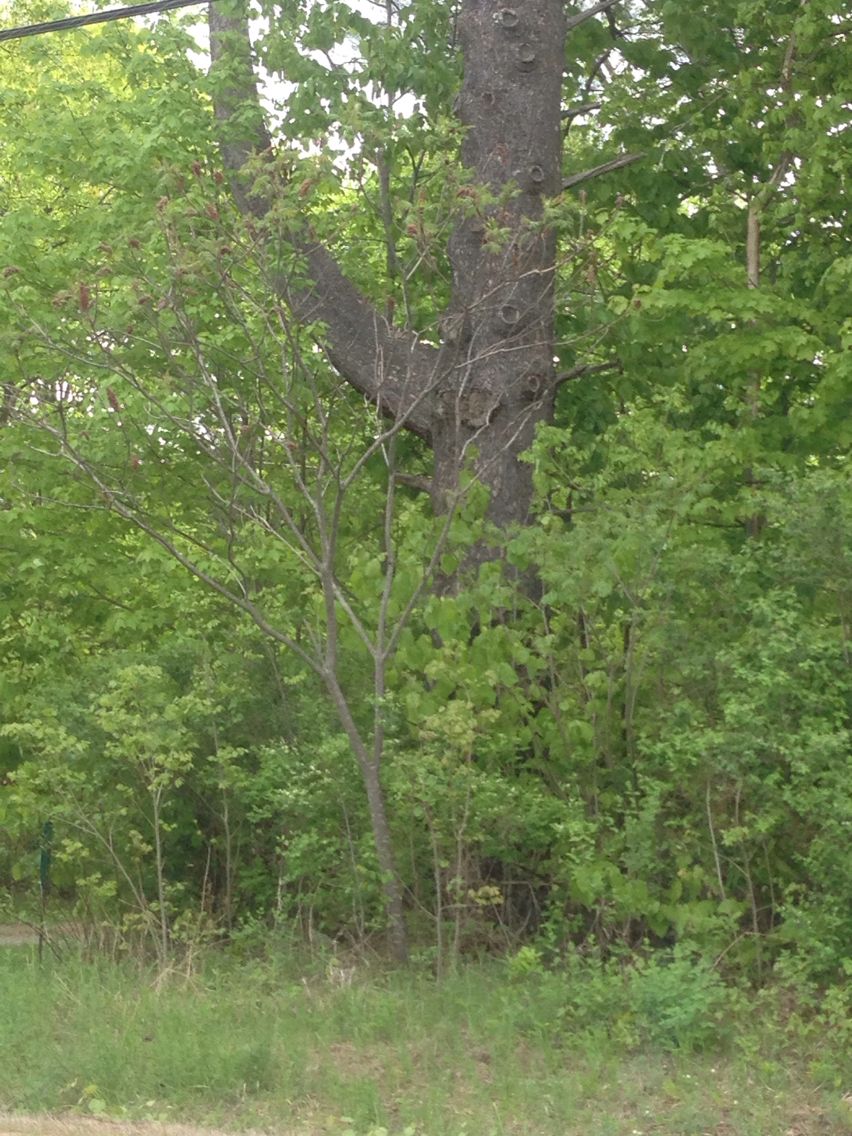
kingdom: Plantae
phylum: Tracheophyta
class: Magnoliopsida
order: Sapindales
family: Anacardiaceae
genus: Rhus
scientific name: Rhus typhina
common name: Staghorn sumac
